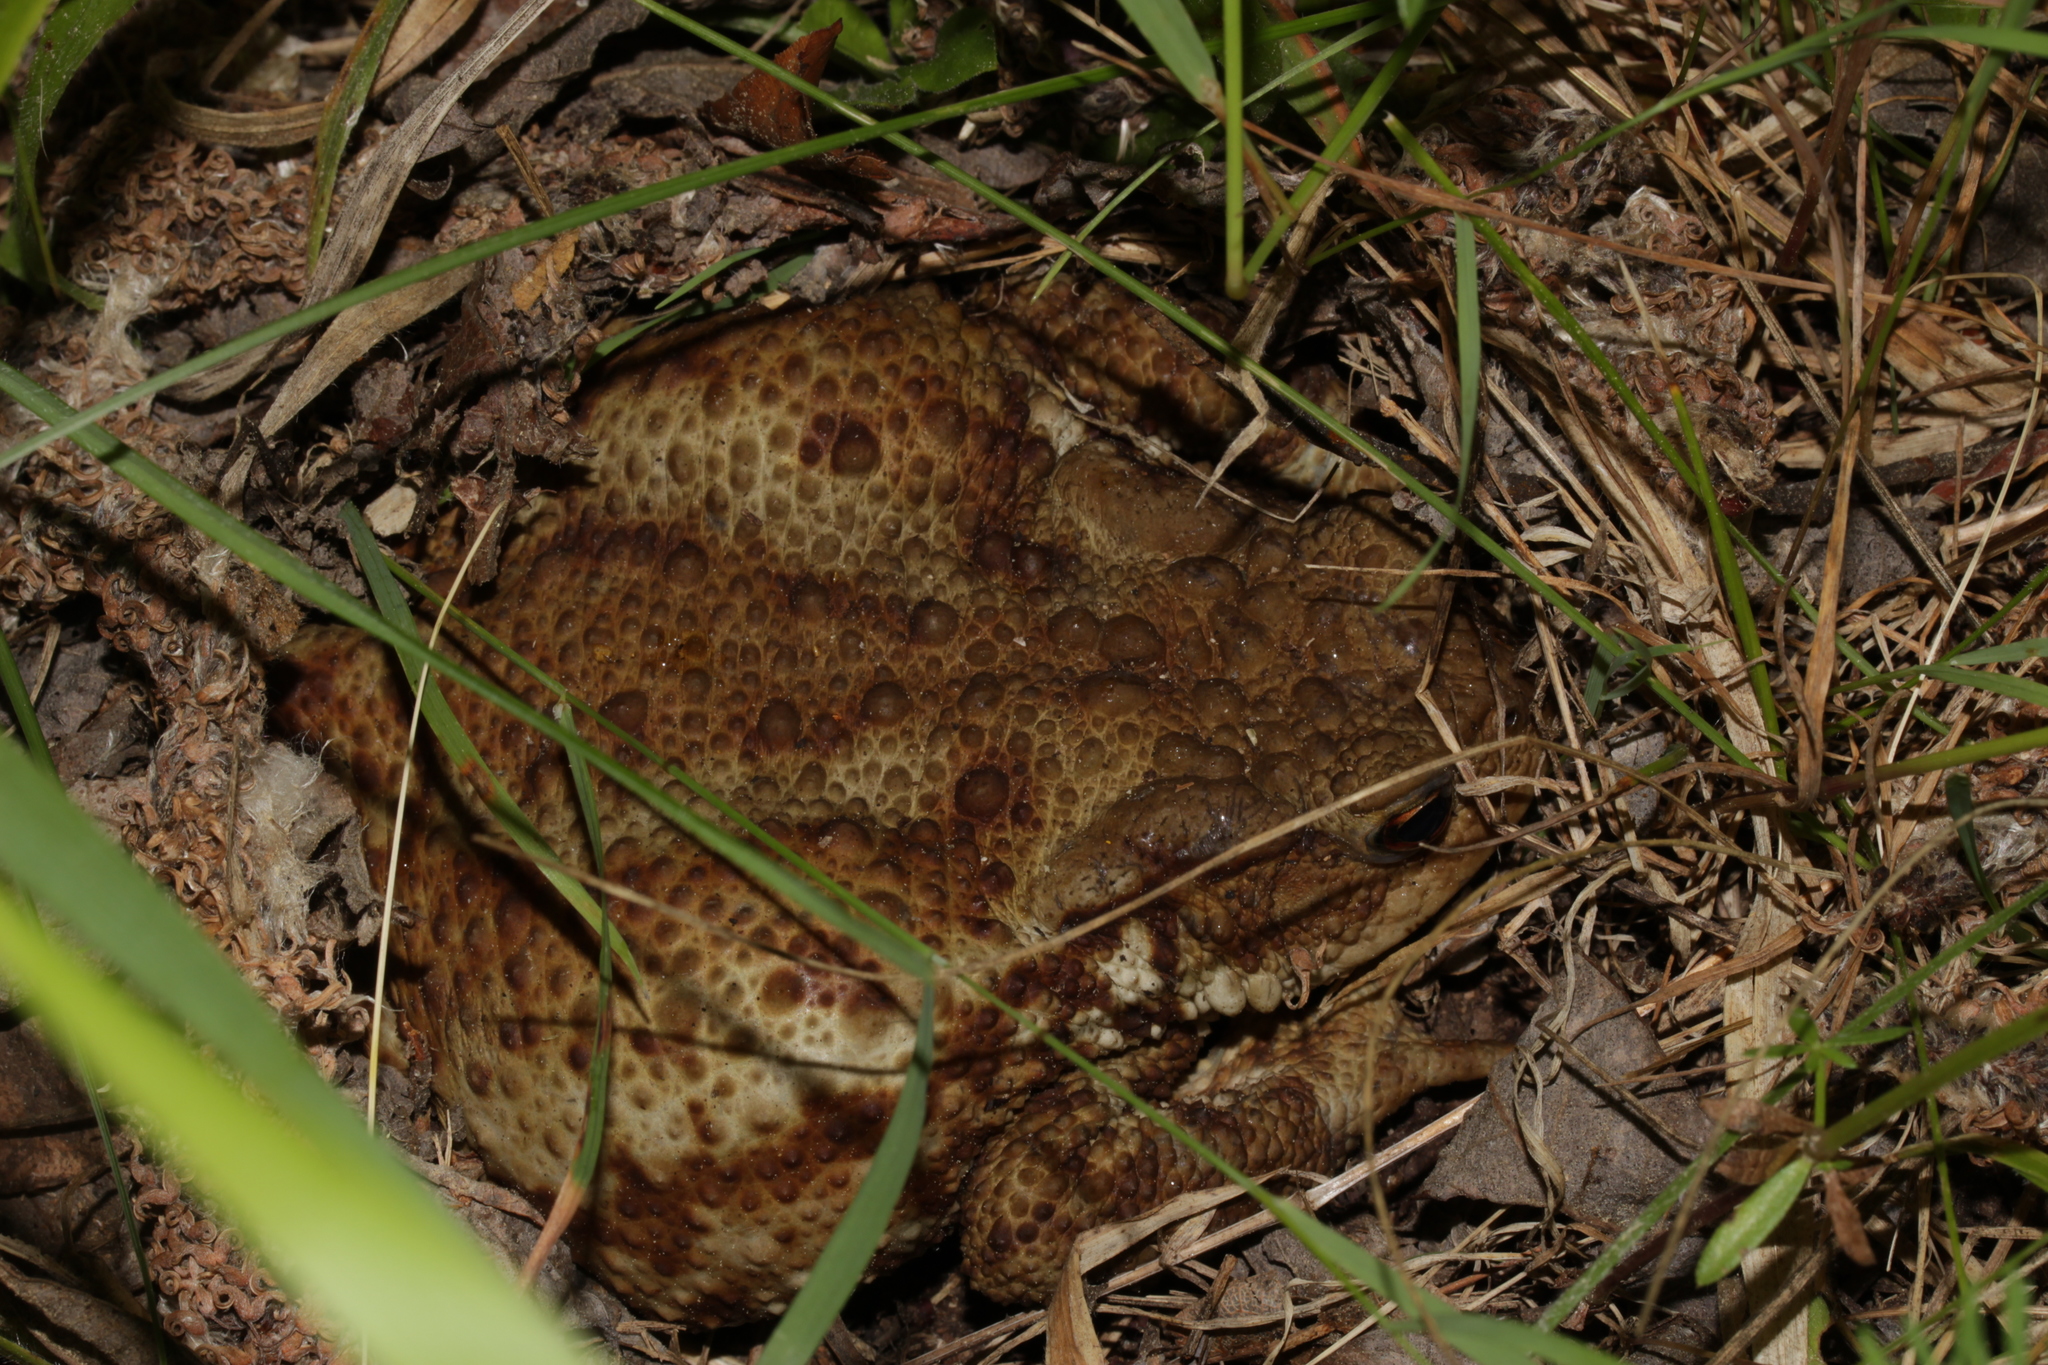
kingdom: Animalia
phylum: Chordata
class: Amphibia
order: Anura
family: Bufonidae
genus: Bufo
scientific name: Bufo bufo
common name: Common toad
